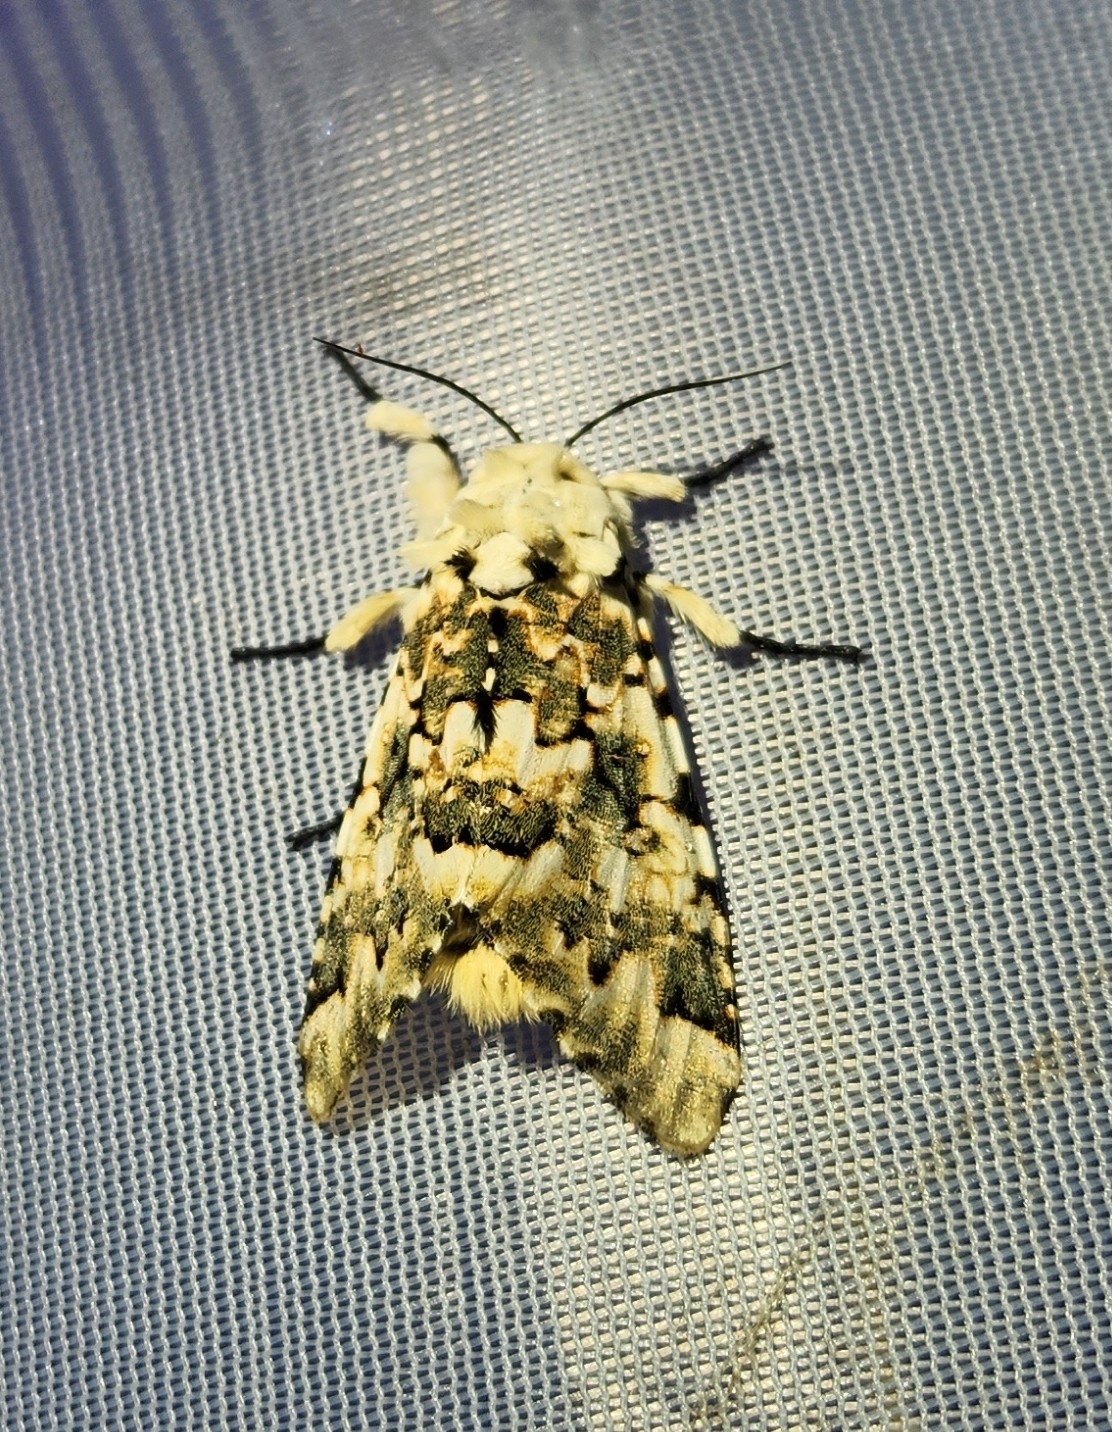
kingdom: Animalia
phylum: Arthropoda
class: Insecta
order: Lepidoptera
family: Noctuidae
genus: Bathyra
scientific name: Bathyra sagata
